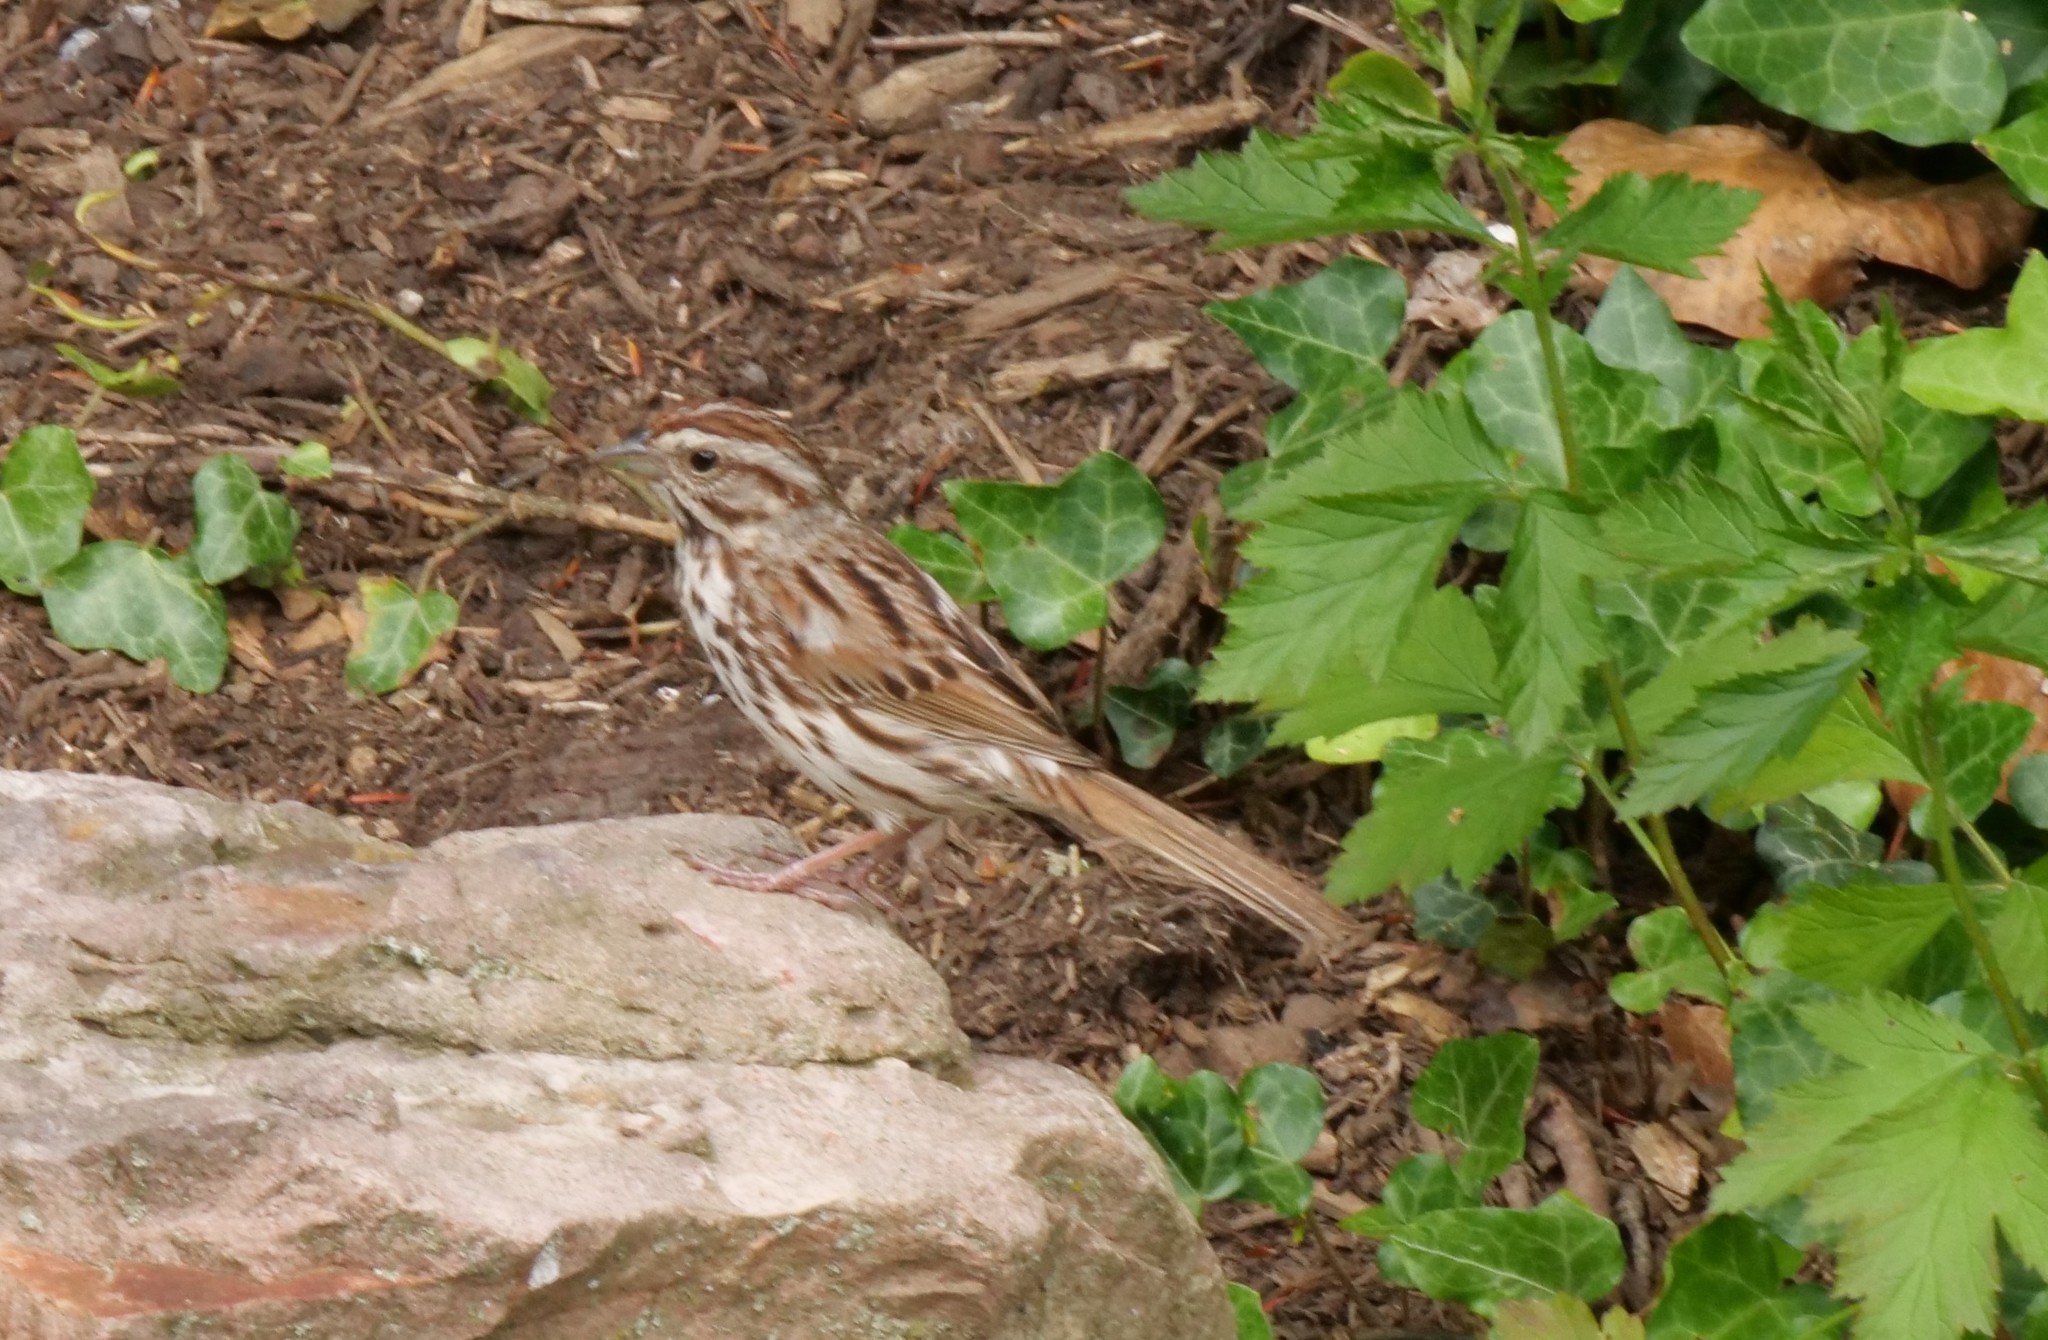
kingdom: Animalia
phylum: Chordata
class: Aves
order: Passeriformes
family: Passerellidae
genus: Melospiza
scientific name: Melospiza melodia
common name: Song sparrow
